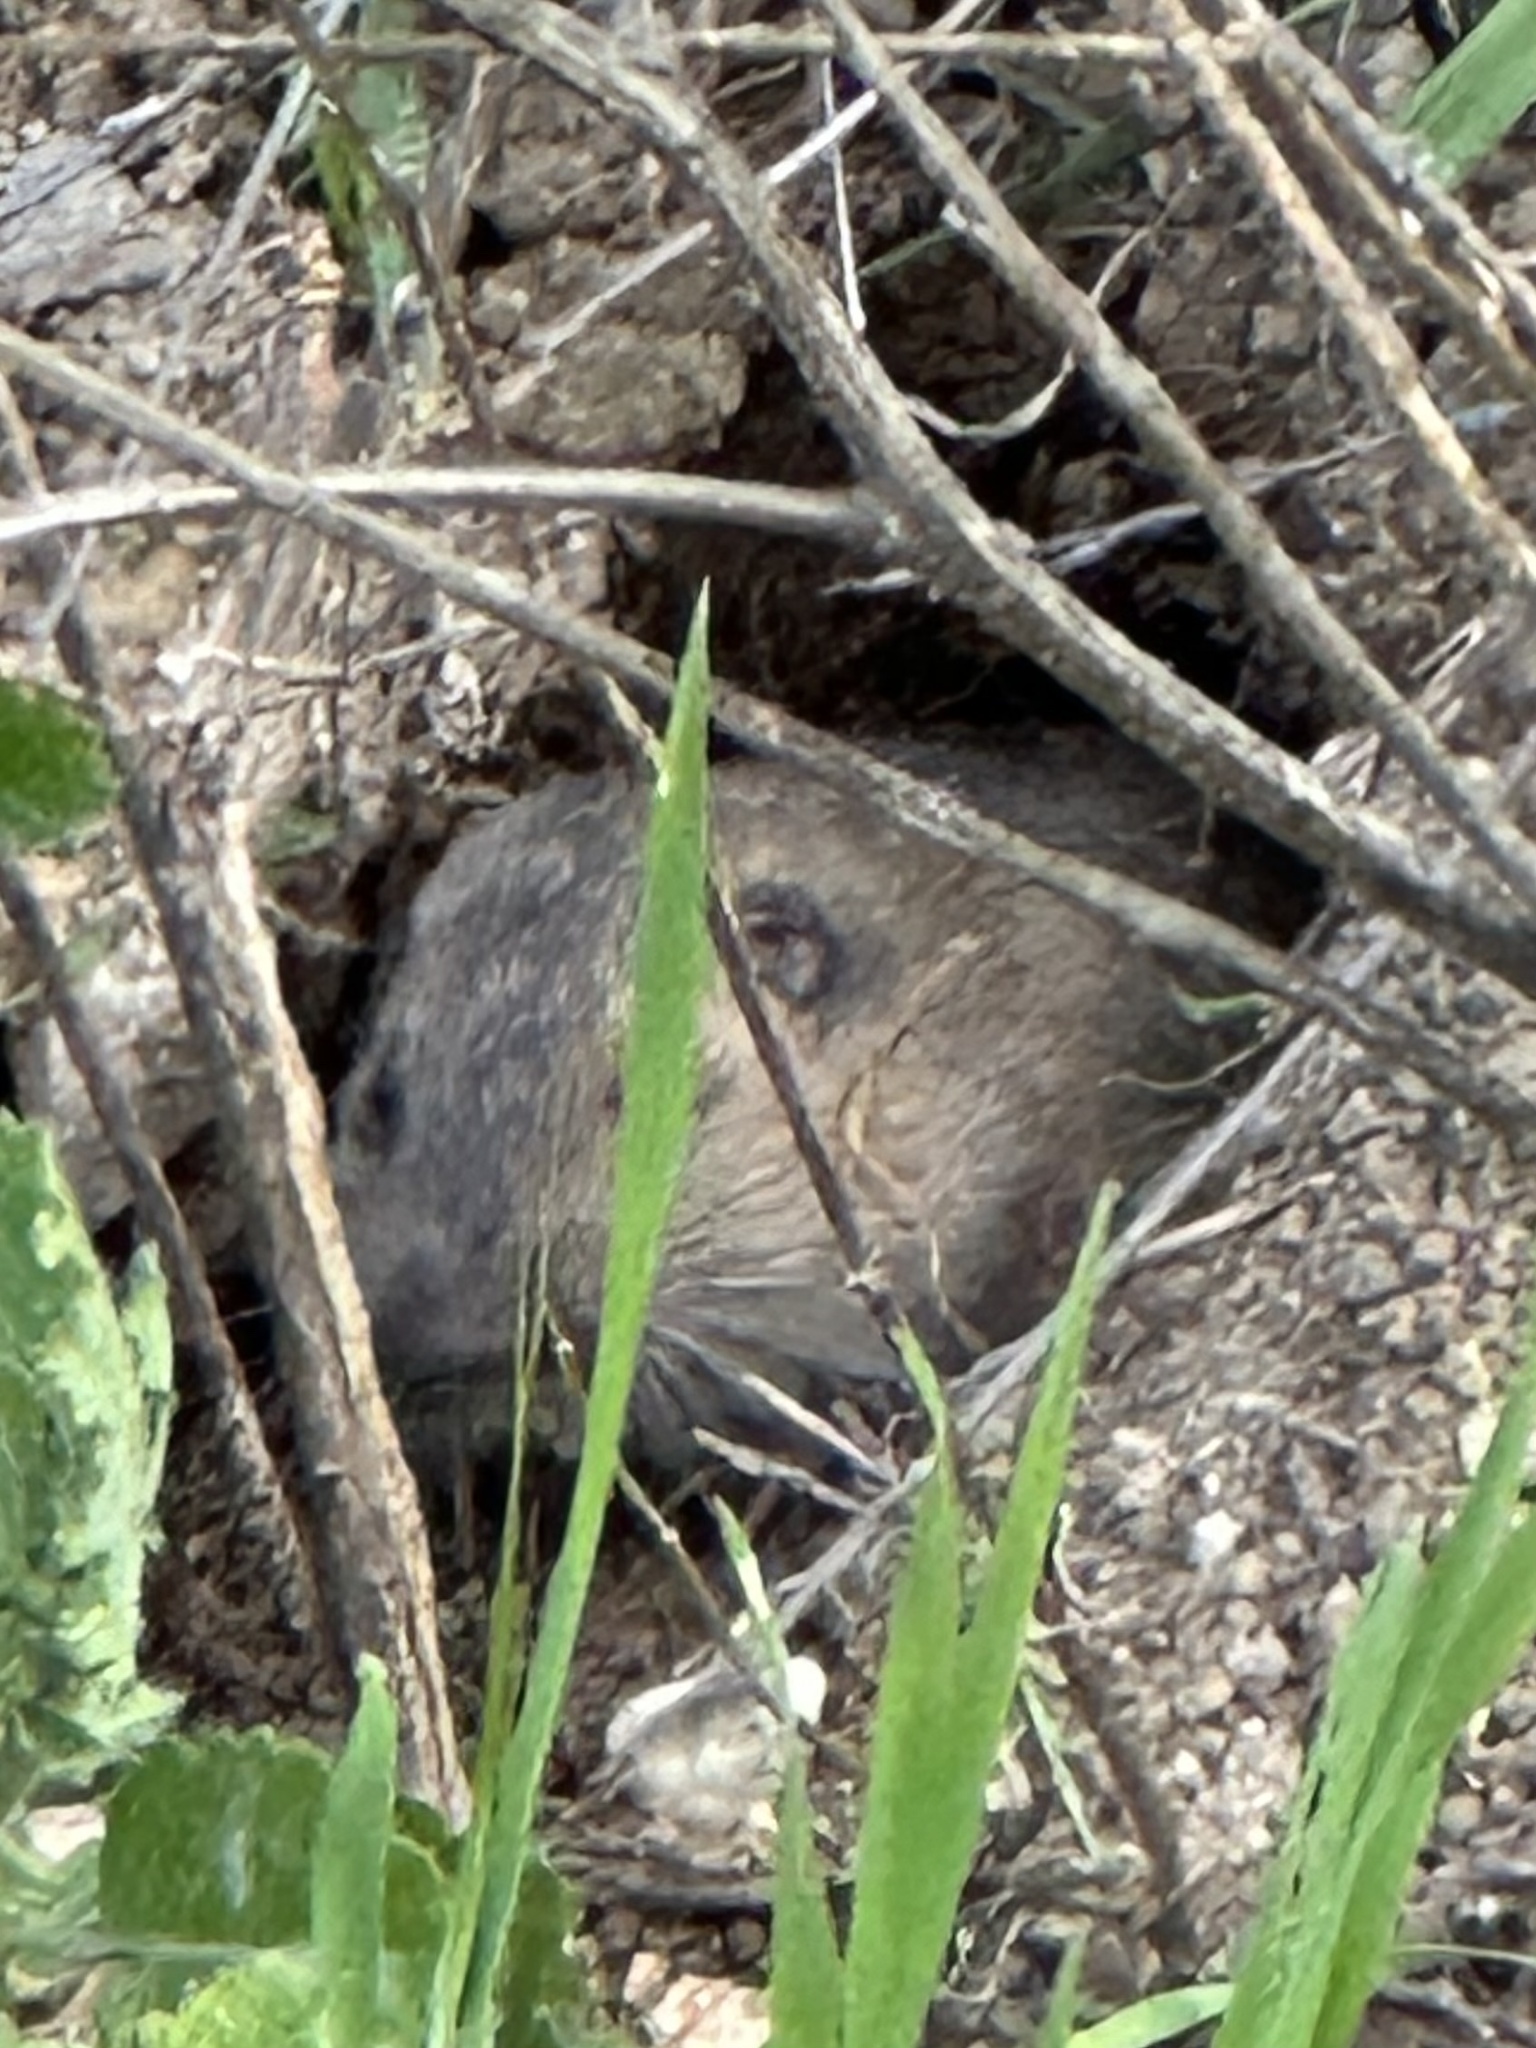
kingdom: Animalia
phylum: Chordata
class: Mammalia
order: Rodentia
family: Geomyidae
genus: Thomomys
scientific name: Thomomys bottae
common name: Botta's pocket gopher
